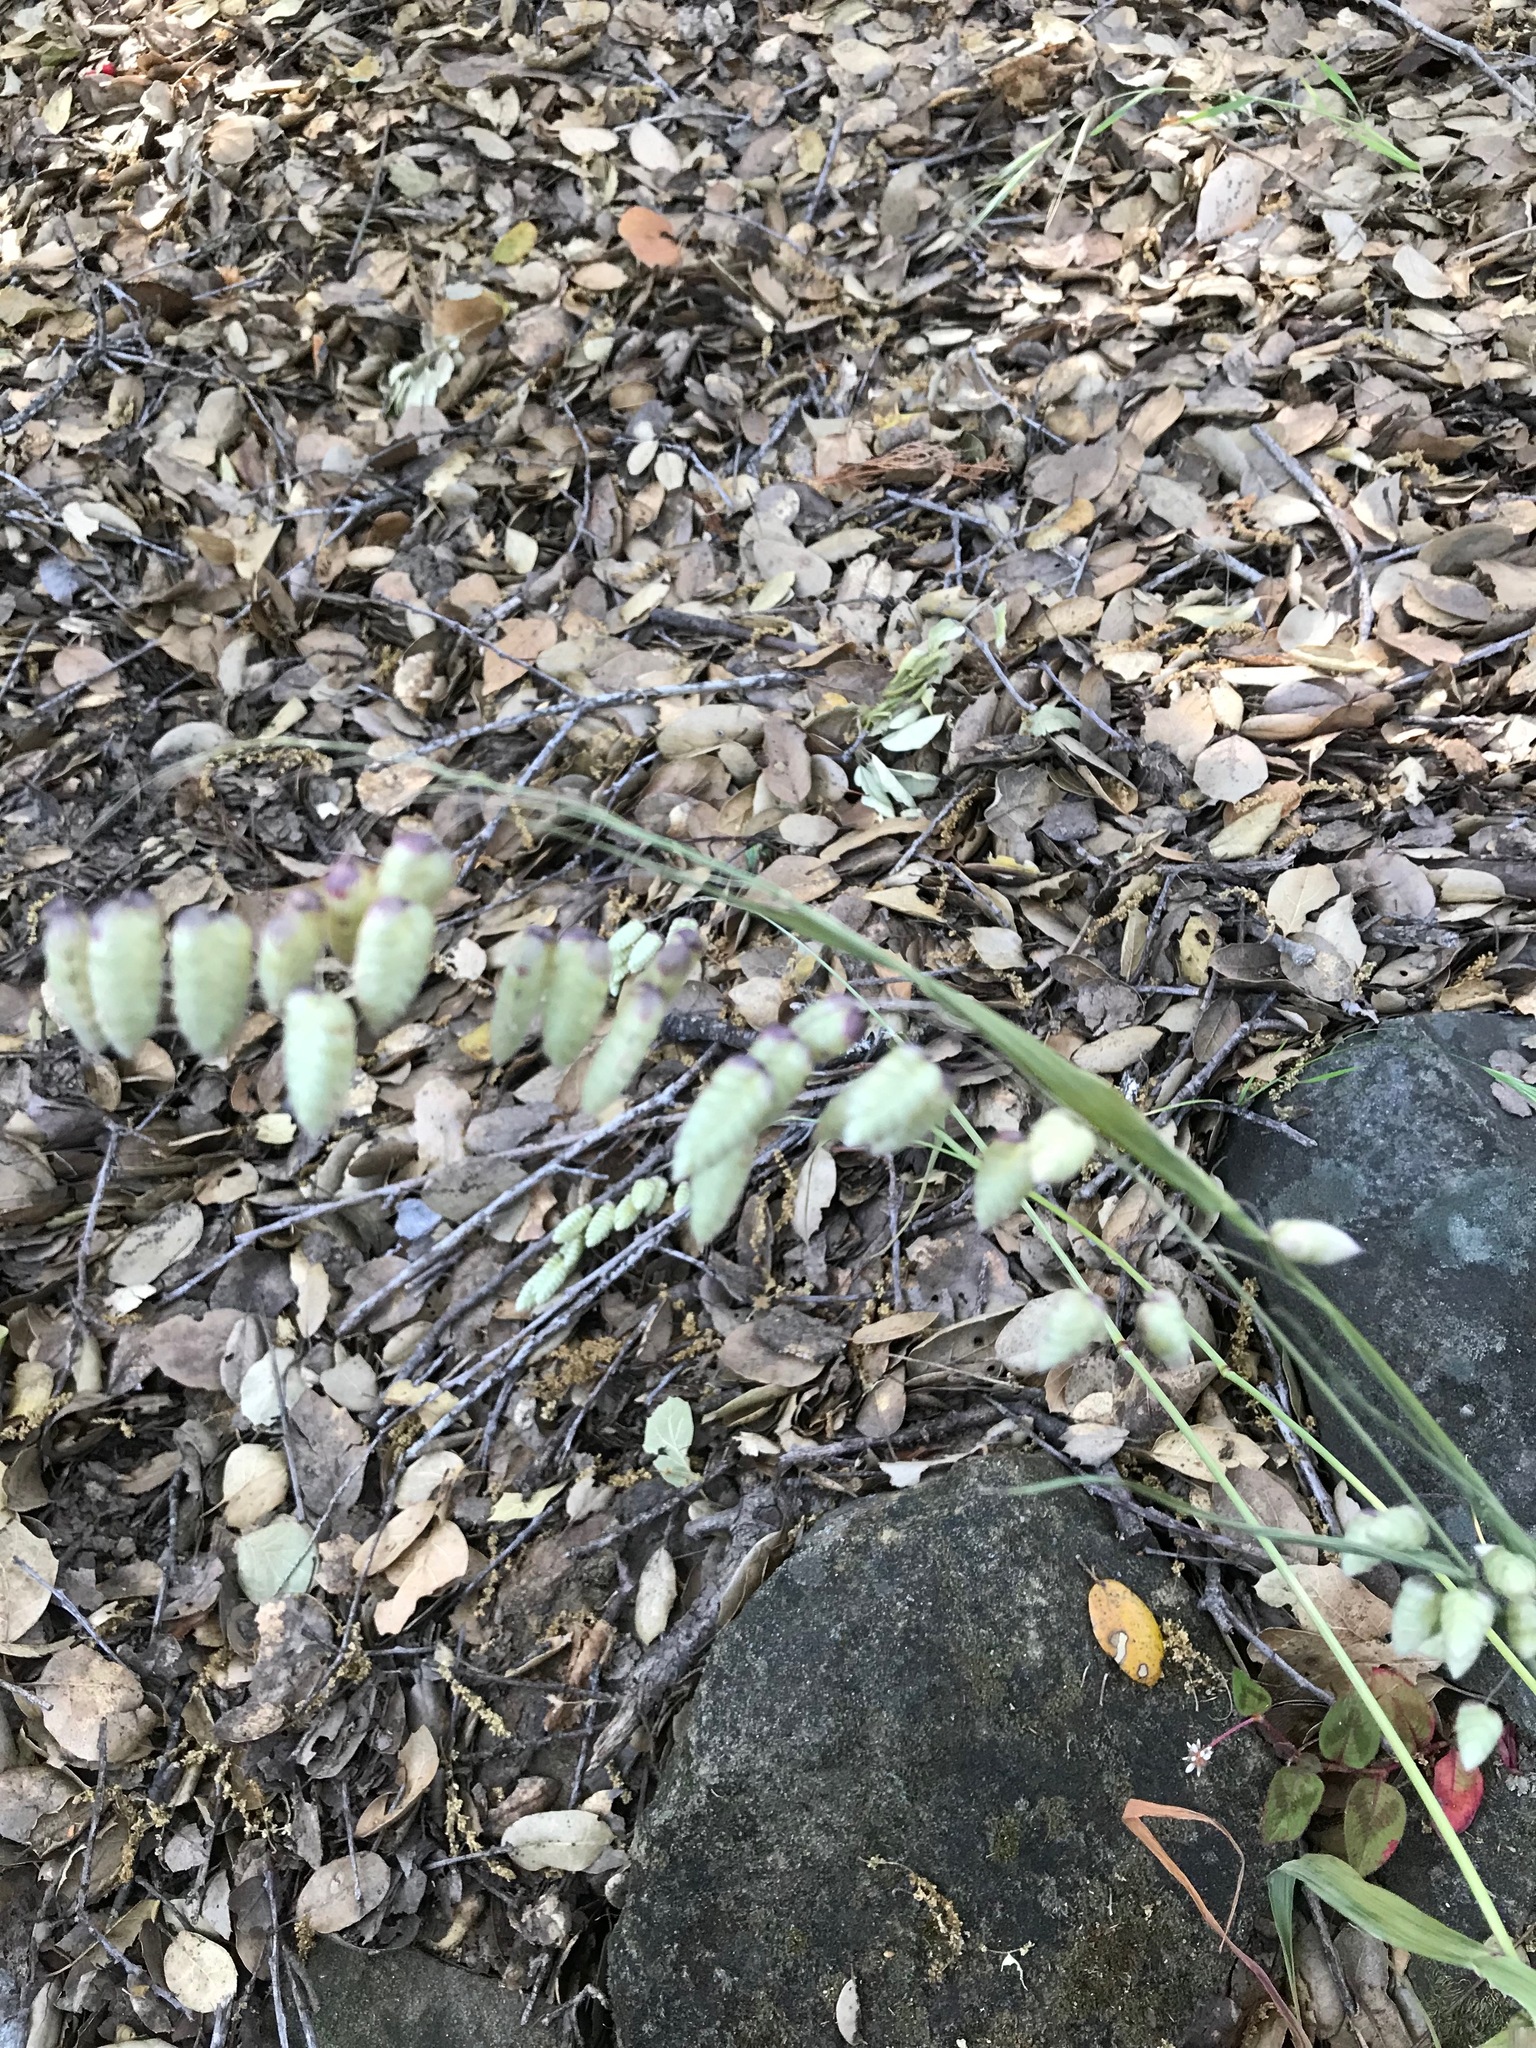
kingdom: Plantae
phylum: Tracheophyta
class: Liliopsida
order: Poales
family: Poaceae
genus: Briza
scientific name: Briza maxima
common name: Big quakinggrass
